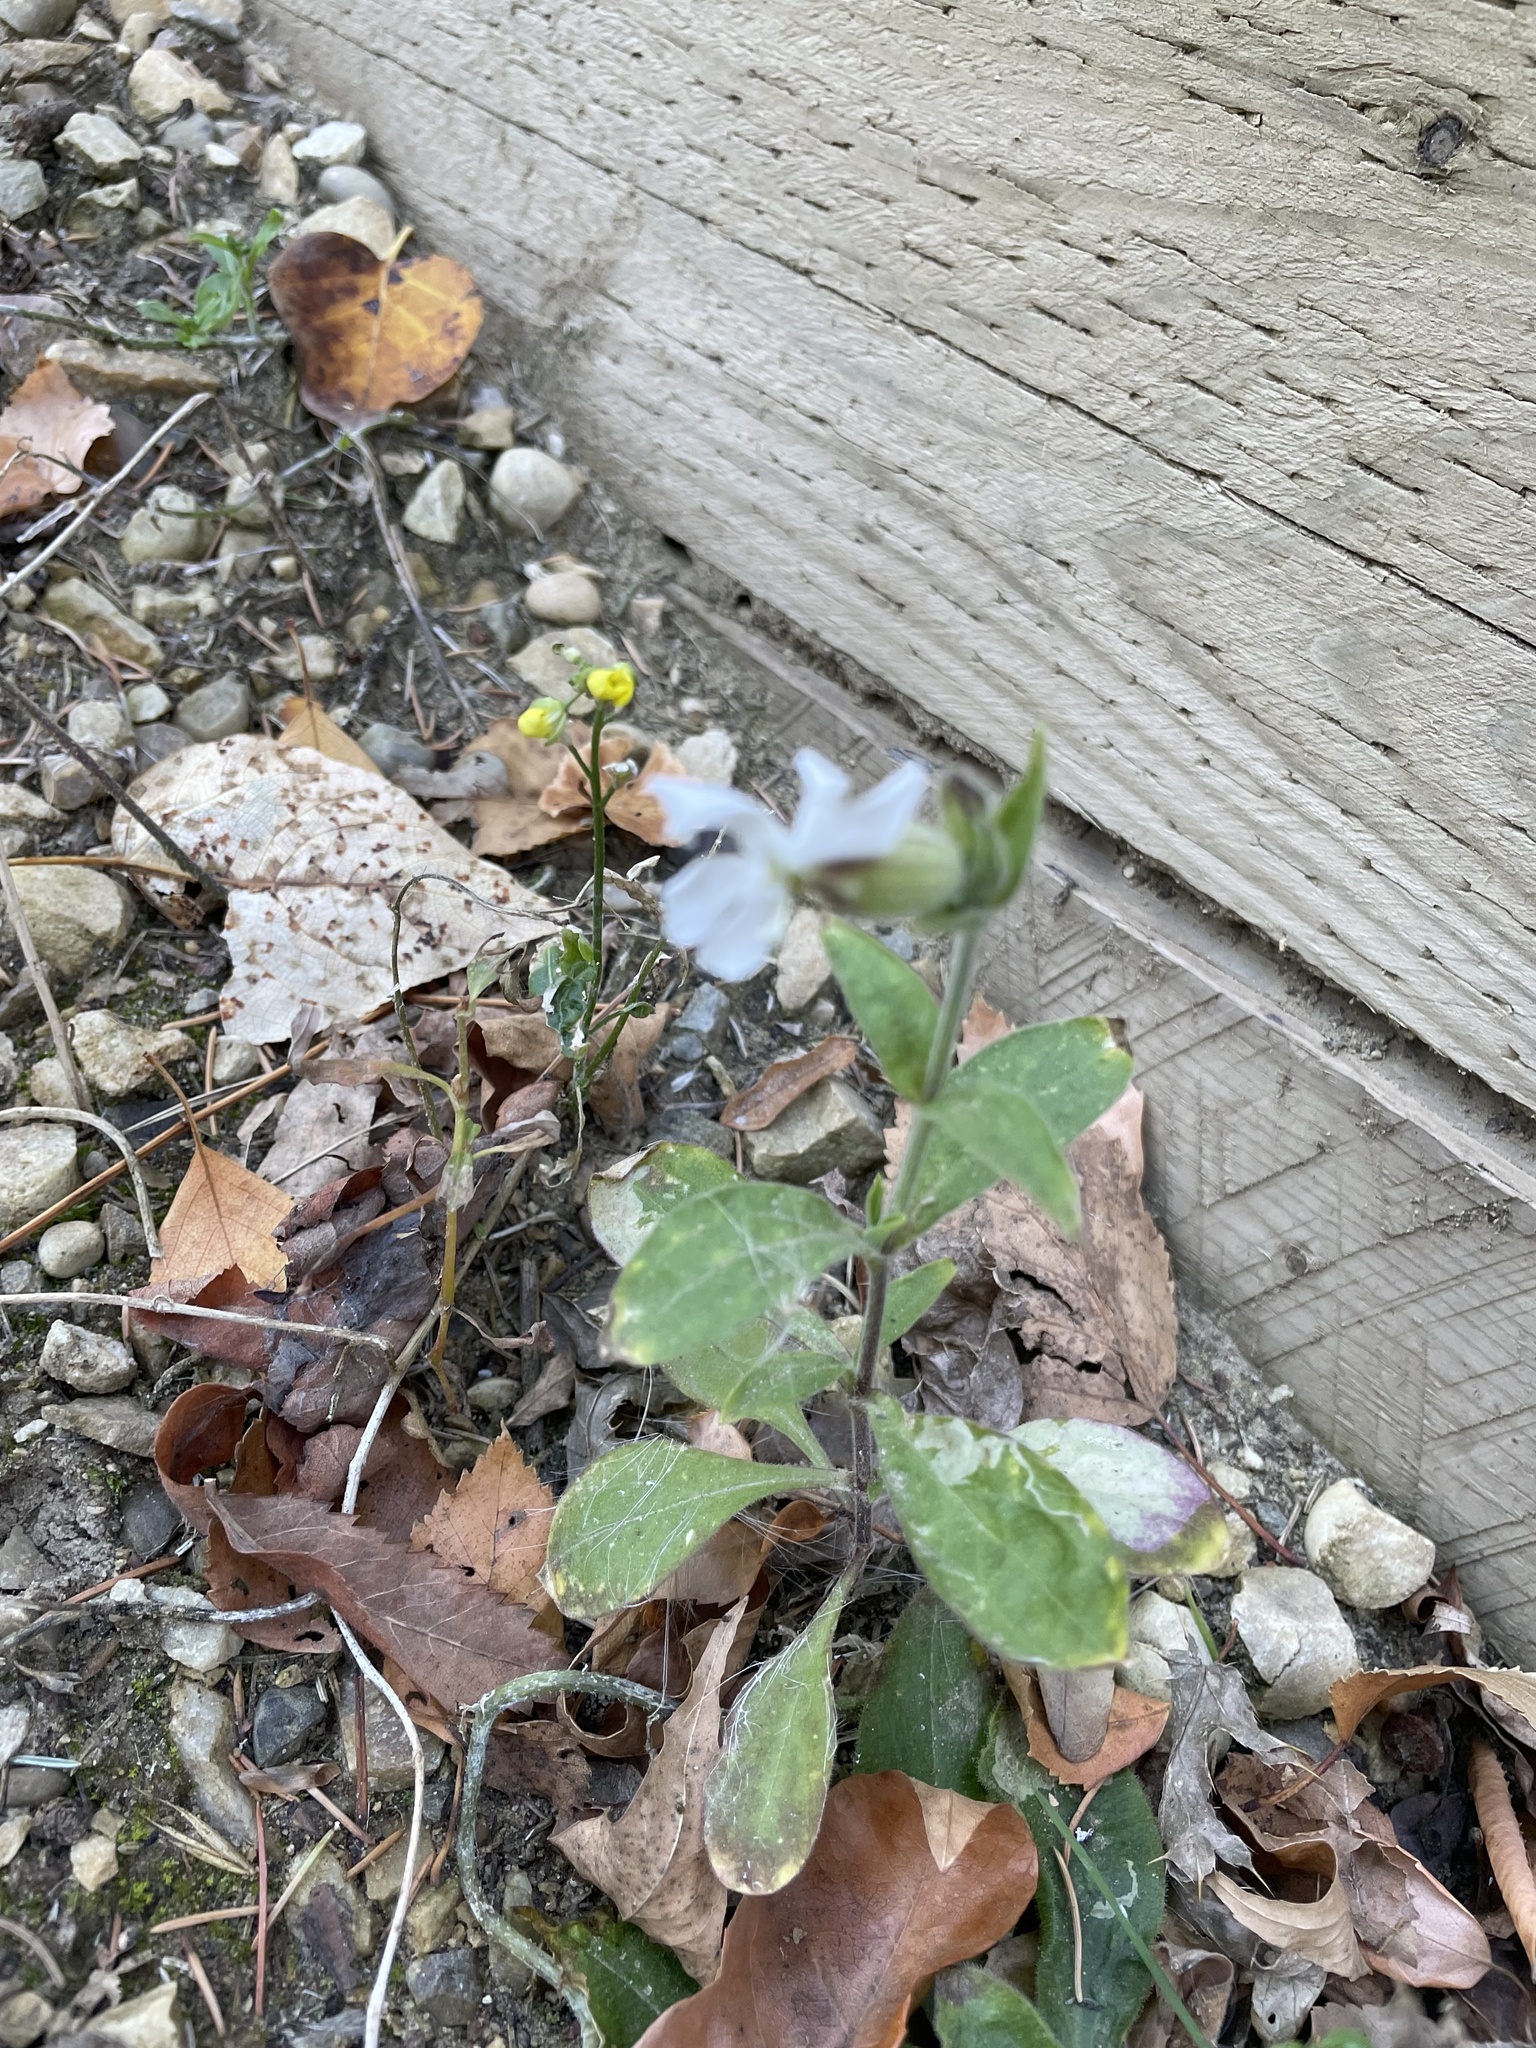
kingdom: Plantae
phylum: Tracheophyta
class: Magnoliopsida
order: Caryophyllales
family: Caryophyllaceae
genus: Silene
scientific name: Silene latifolia
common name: White campion
